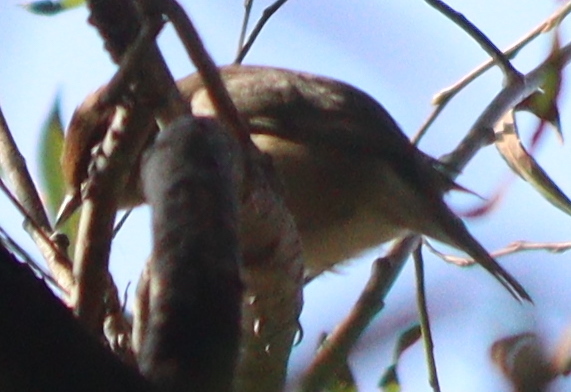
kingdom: Animalia
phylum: Chordata
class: Aves
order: Passeriformes
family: Sylviidae
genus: Sylvia
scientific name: Sylvia atricapilla
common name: Eurasian blackcap
